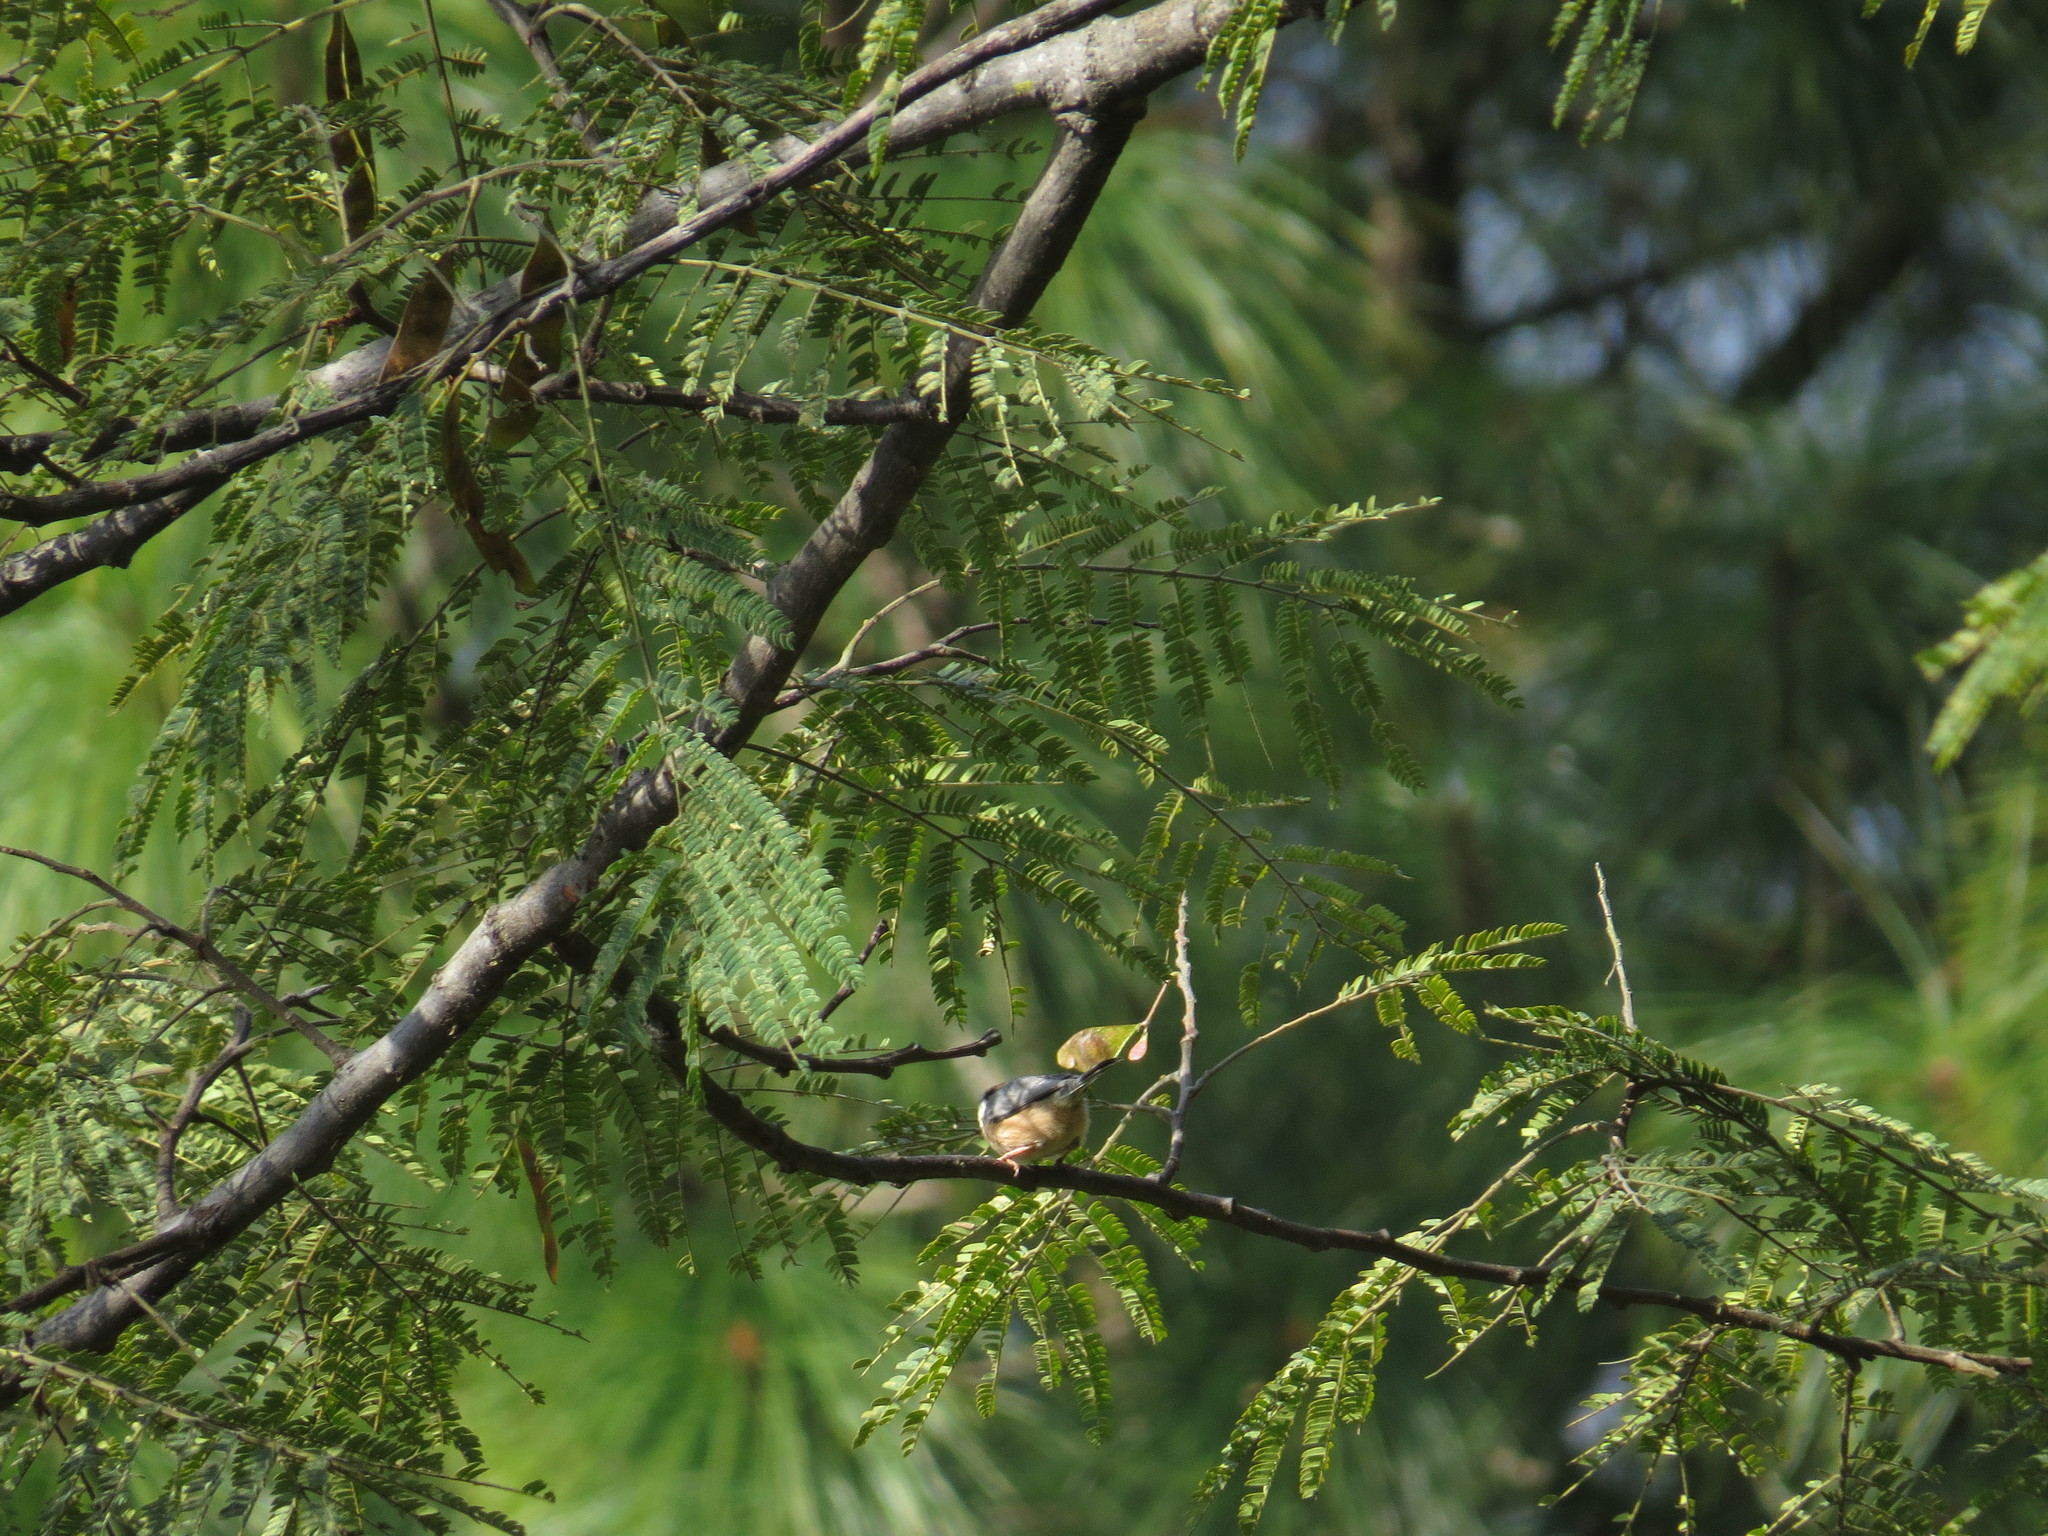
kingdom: Animalia
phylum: Chordata
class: Aves
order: Passeriformes
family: Aegithalidae
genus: Aegithalos
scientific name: Aegithalos concinnus
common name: Black-throated bushtit
